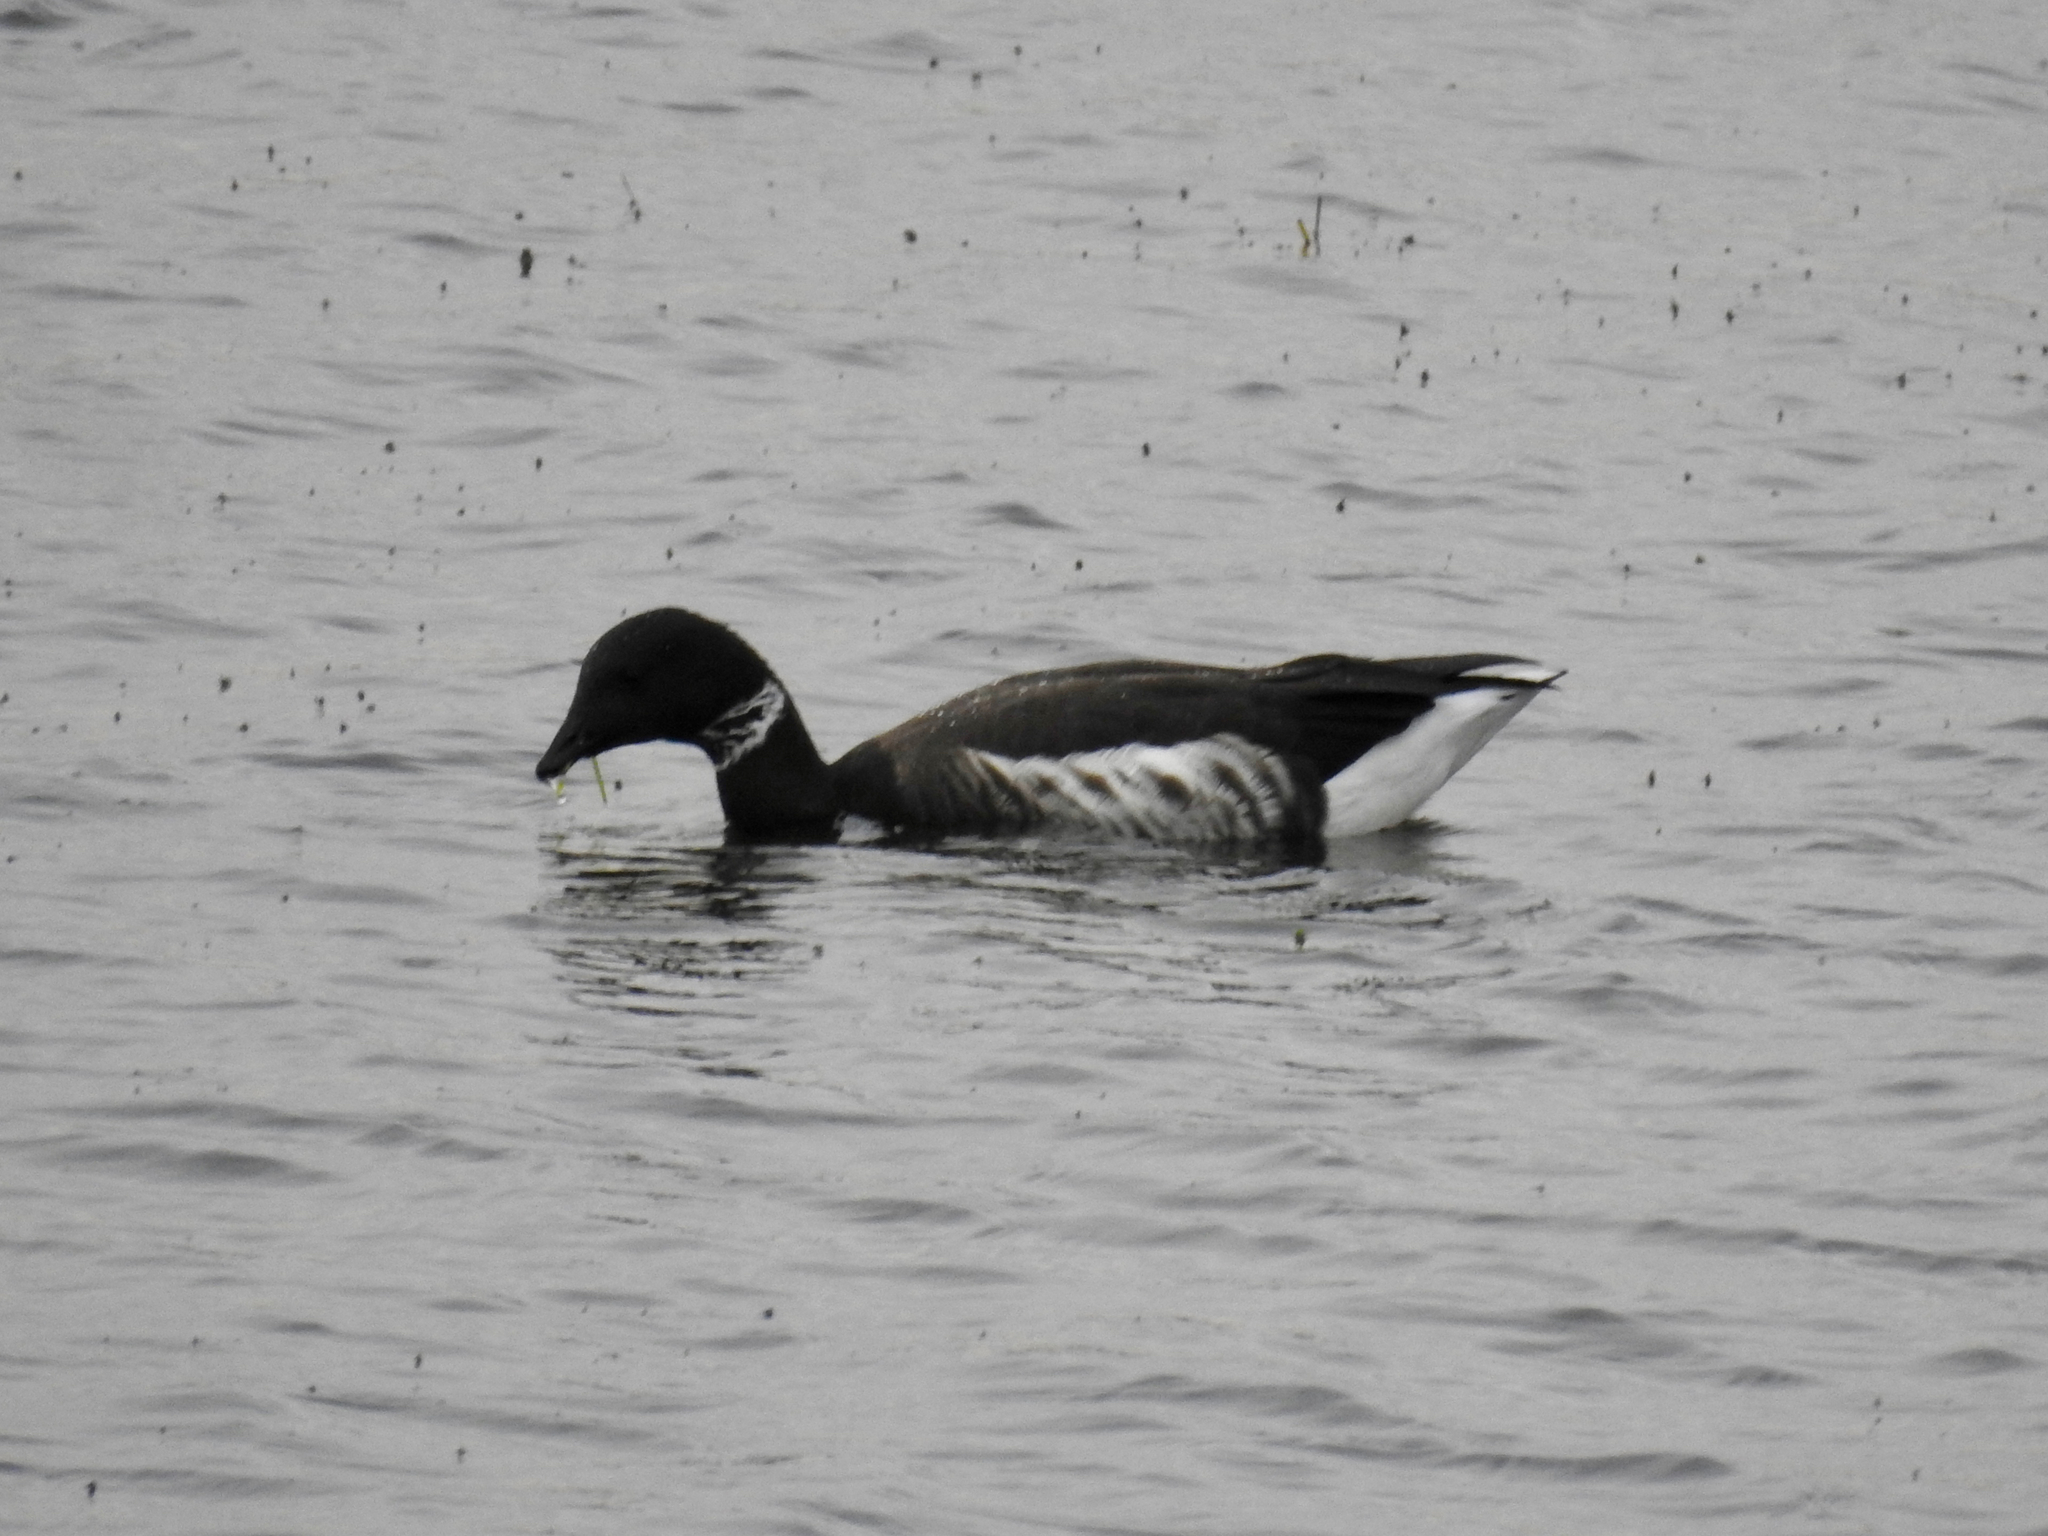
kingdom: Animalia
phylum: Chordata
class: Aves
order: Anseriformes
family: Anatidae
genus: Branta
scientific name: Branta bernicla
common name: Brant goose
